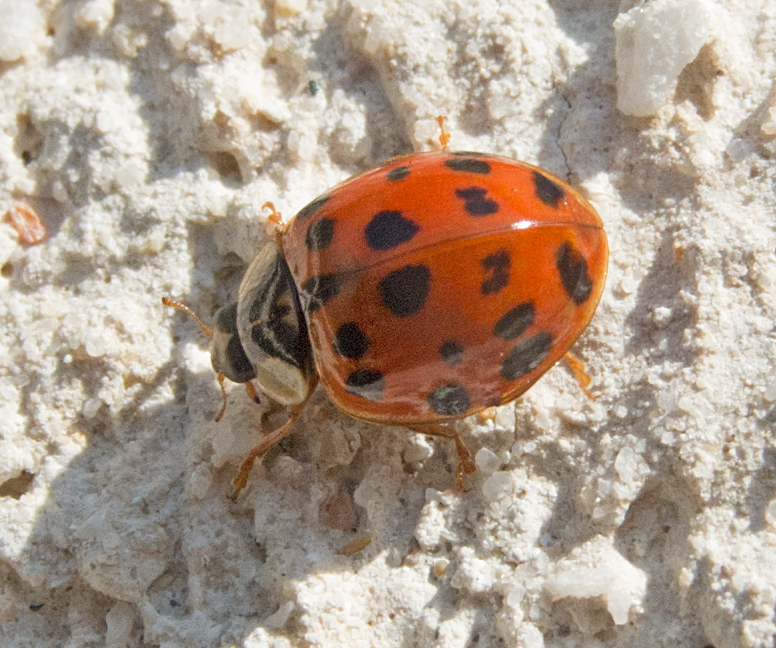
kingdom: Animalia
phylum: Arthropoda
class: Insecta
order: Coleoptera
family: Coccinellidae
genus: Harmonia
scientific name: Harmonia axyridis
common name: Harlequin ladybird
